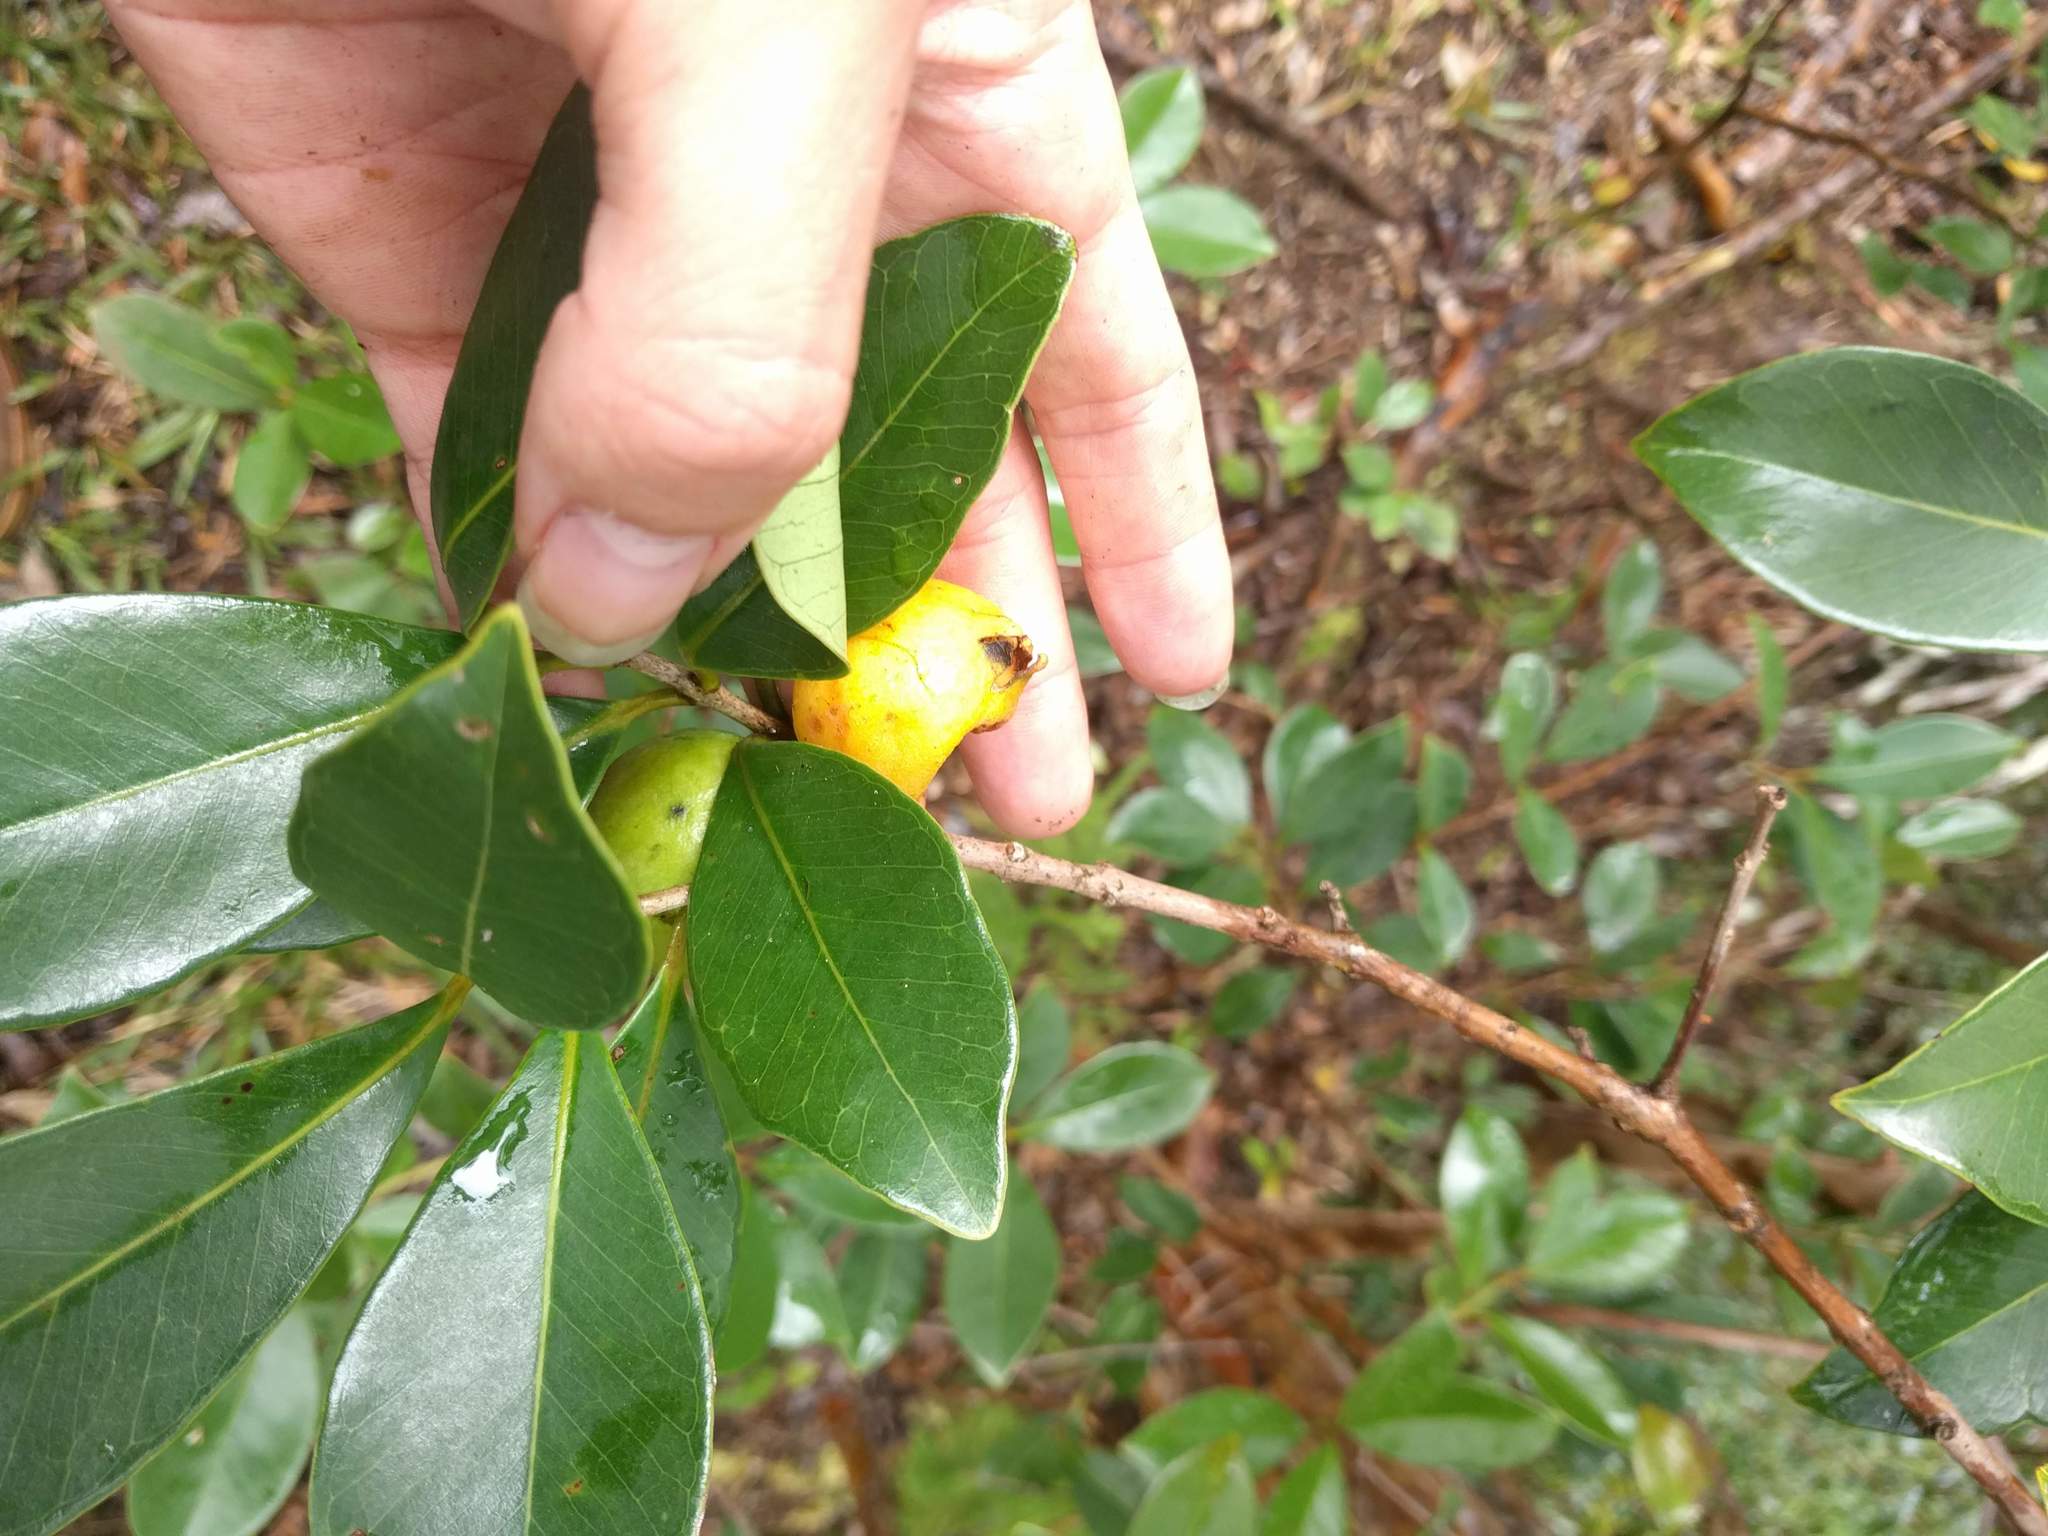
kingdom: Plantae
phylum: Tracheophyta
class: Magnoliopsida
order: Myrtales
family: Myrtaceae
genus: Psidium
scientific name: Psidium cattleianum
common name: Strawberry guava
